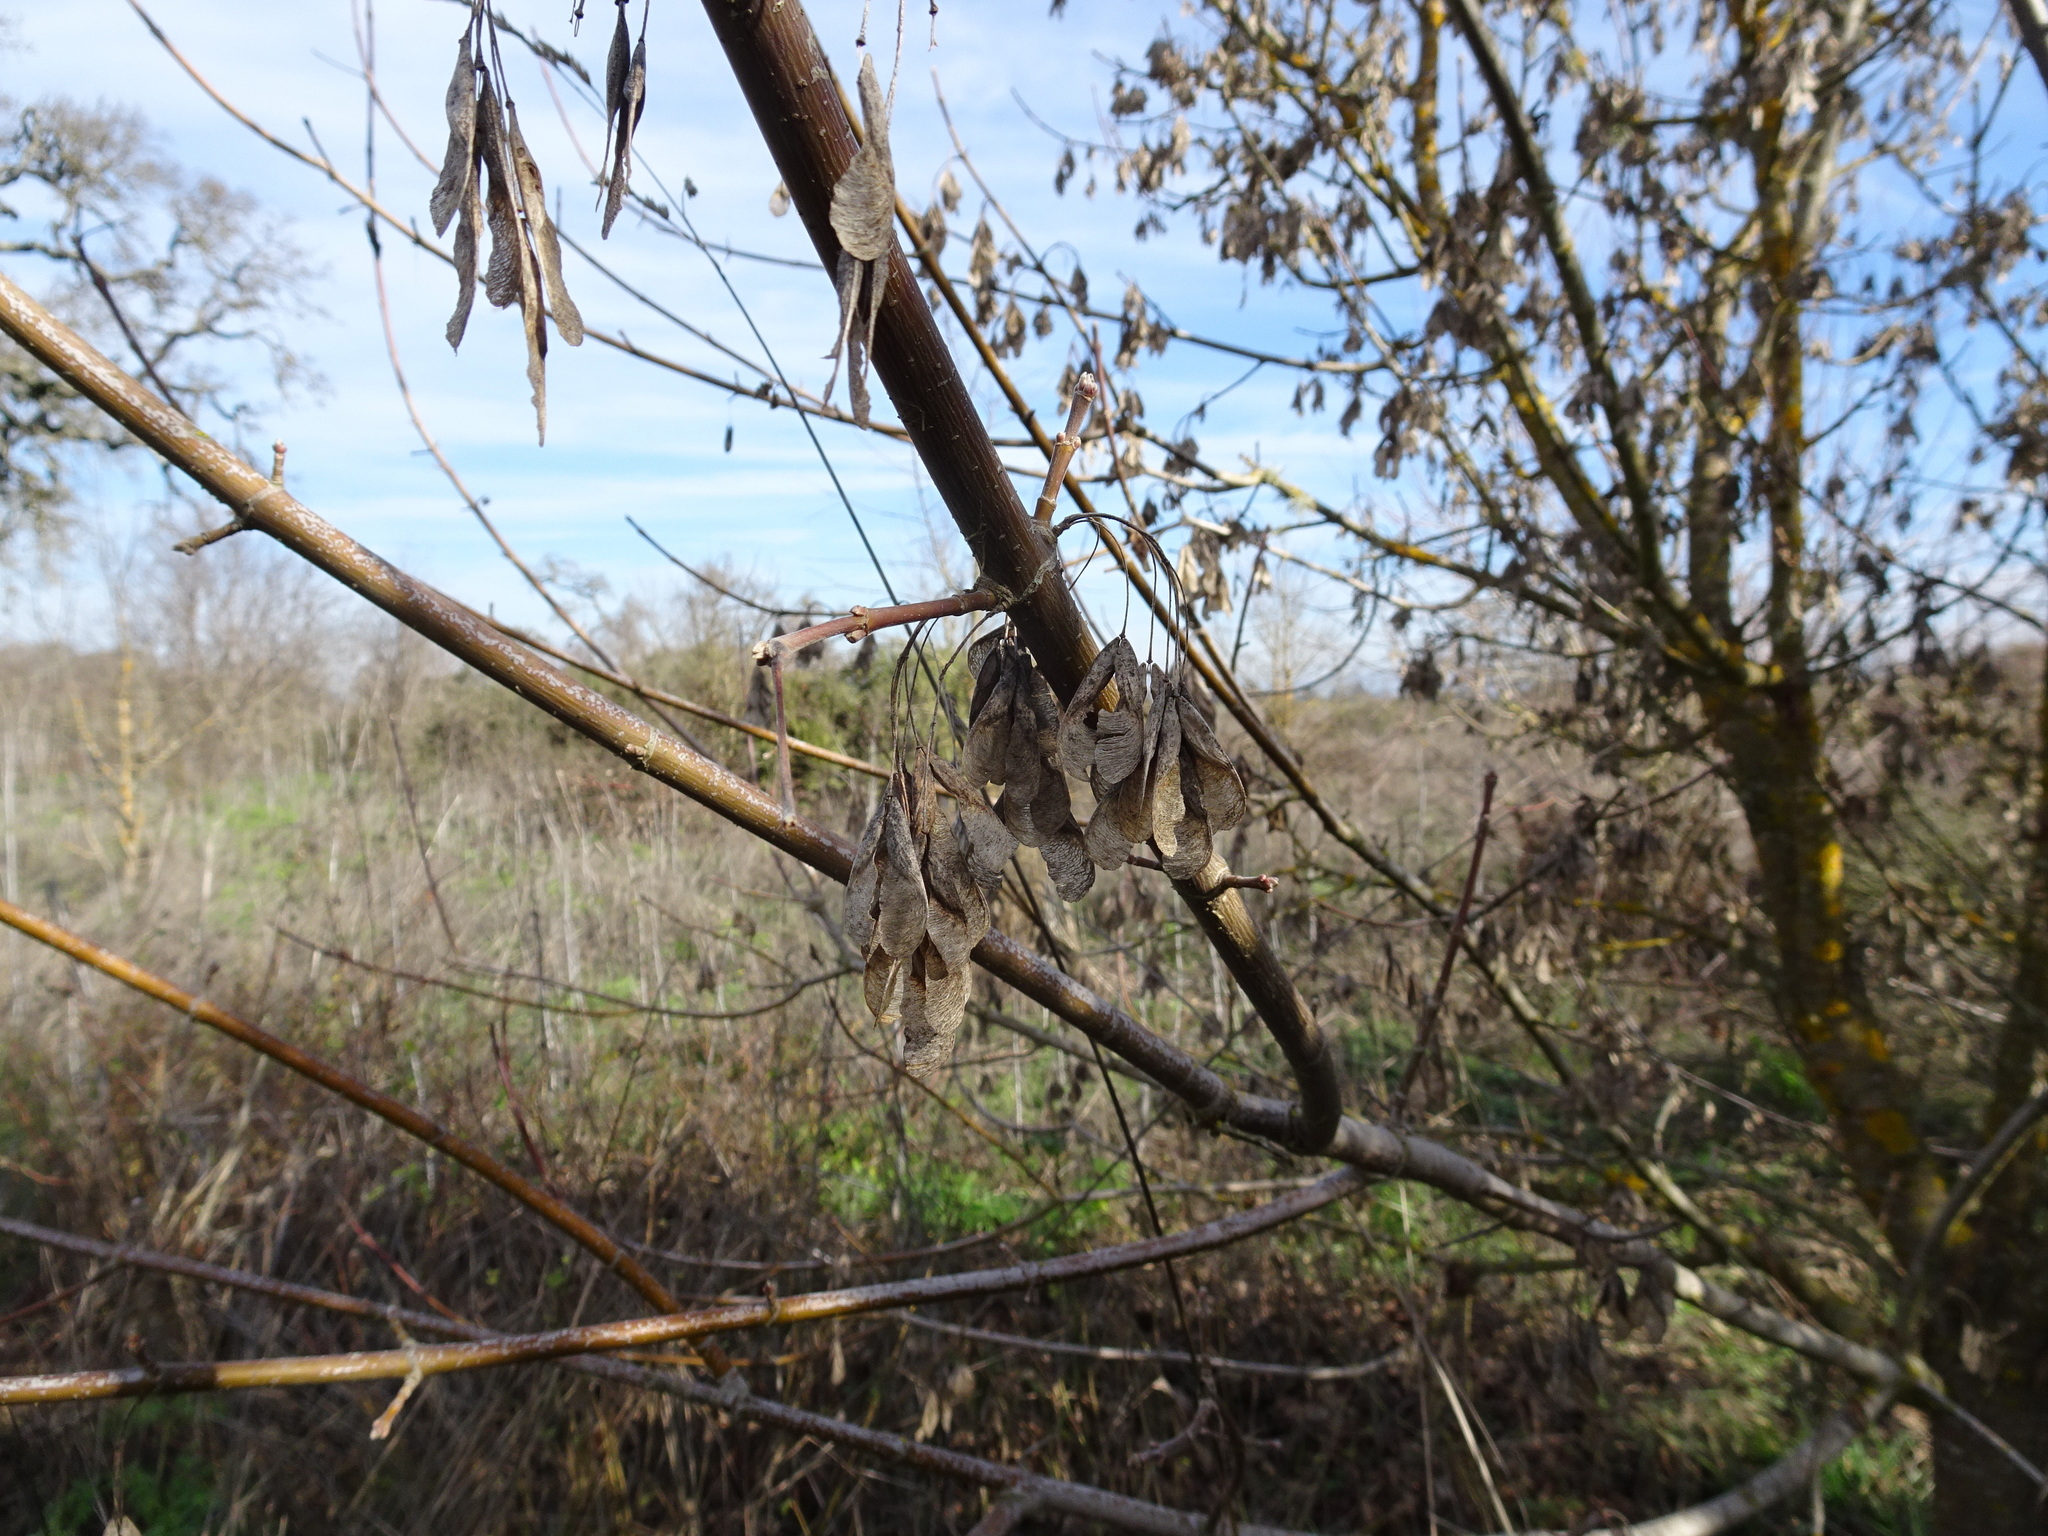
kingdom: Plantae
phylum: Tracheophyta
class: Magnoliopsida
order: Sapindales
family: Sapindaceae
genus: Acer
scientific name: Acer negundo
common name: Ashleaf maple
